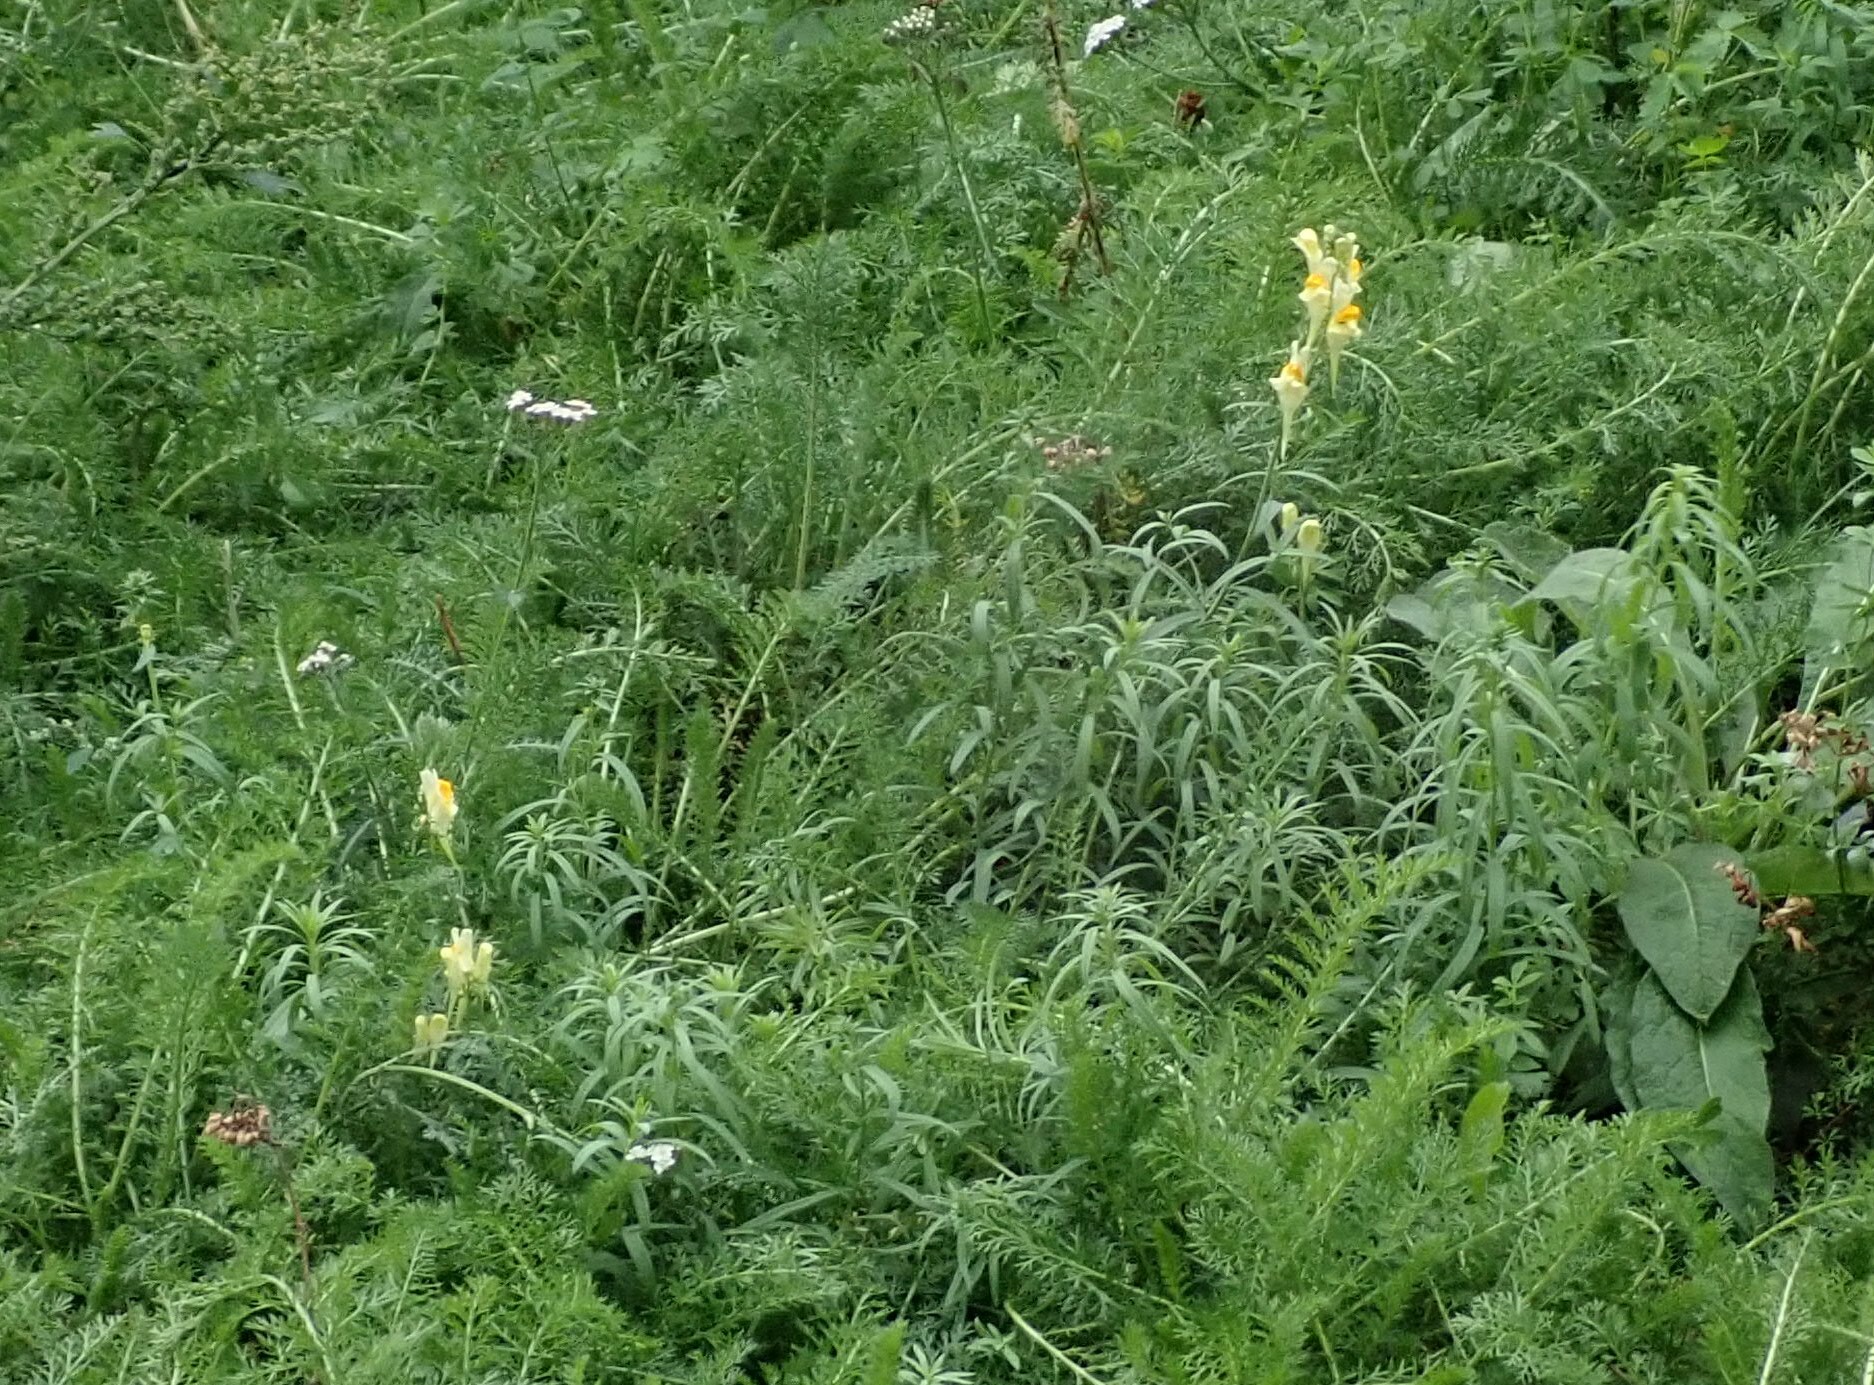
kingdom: Plantae
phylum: Tracheophyta
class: Magnoliopsida
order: Lamiales
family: Plantaginaceae
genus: Linaria
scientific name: Linaria vulgaris
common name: Butter and eggs
